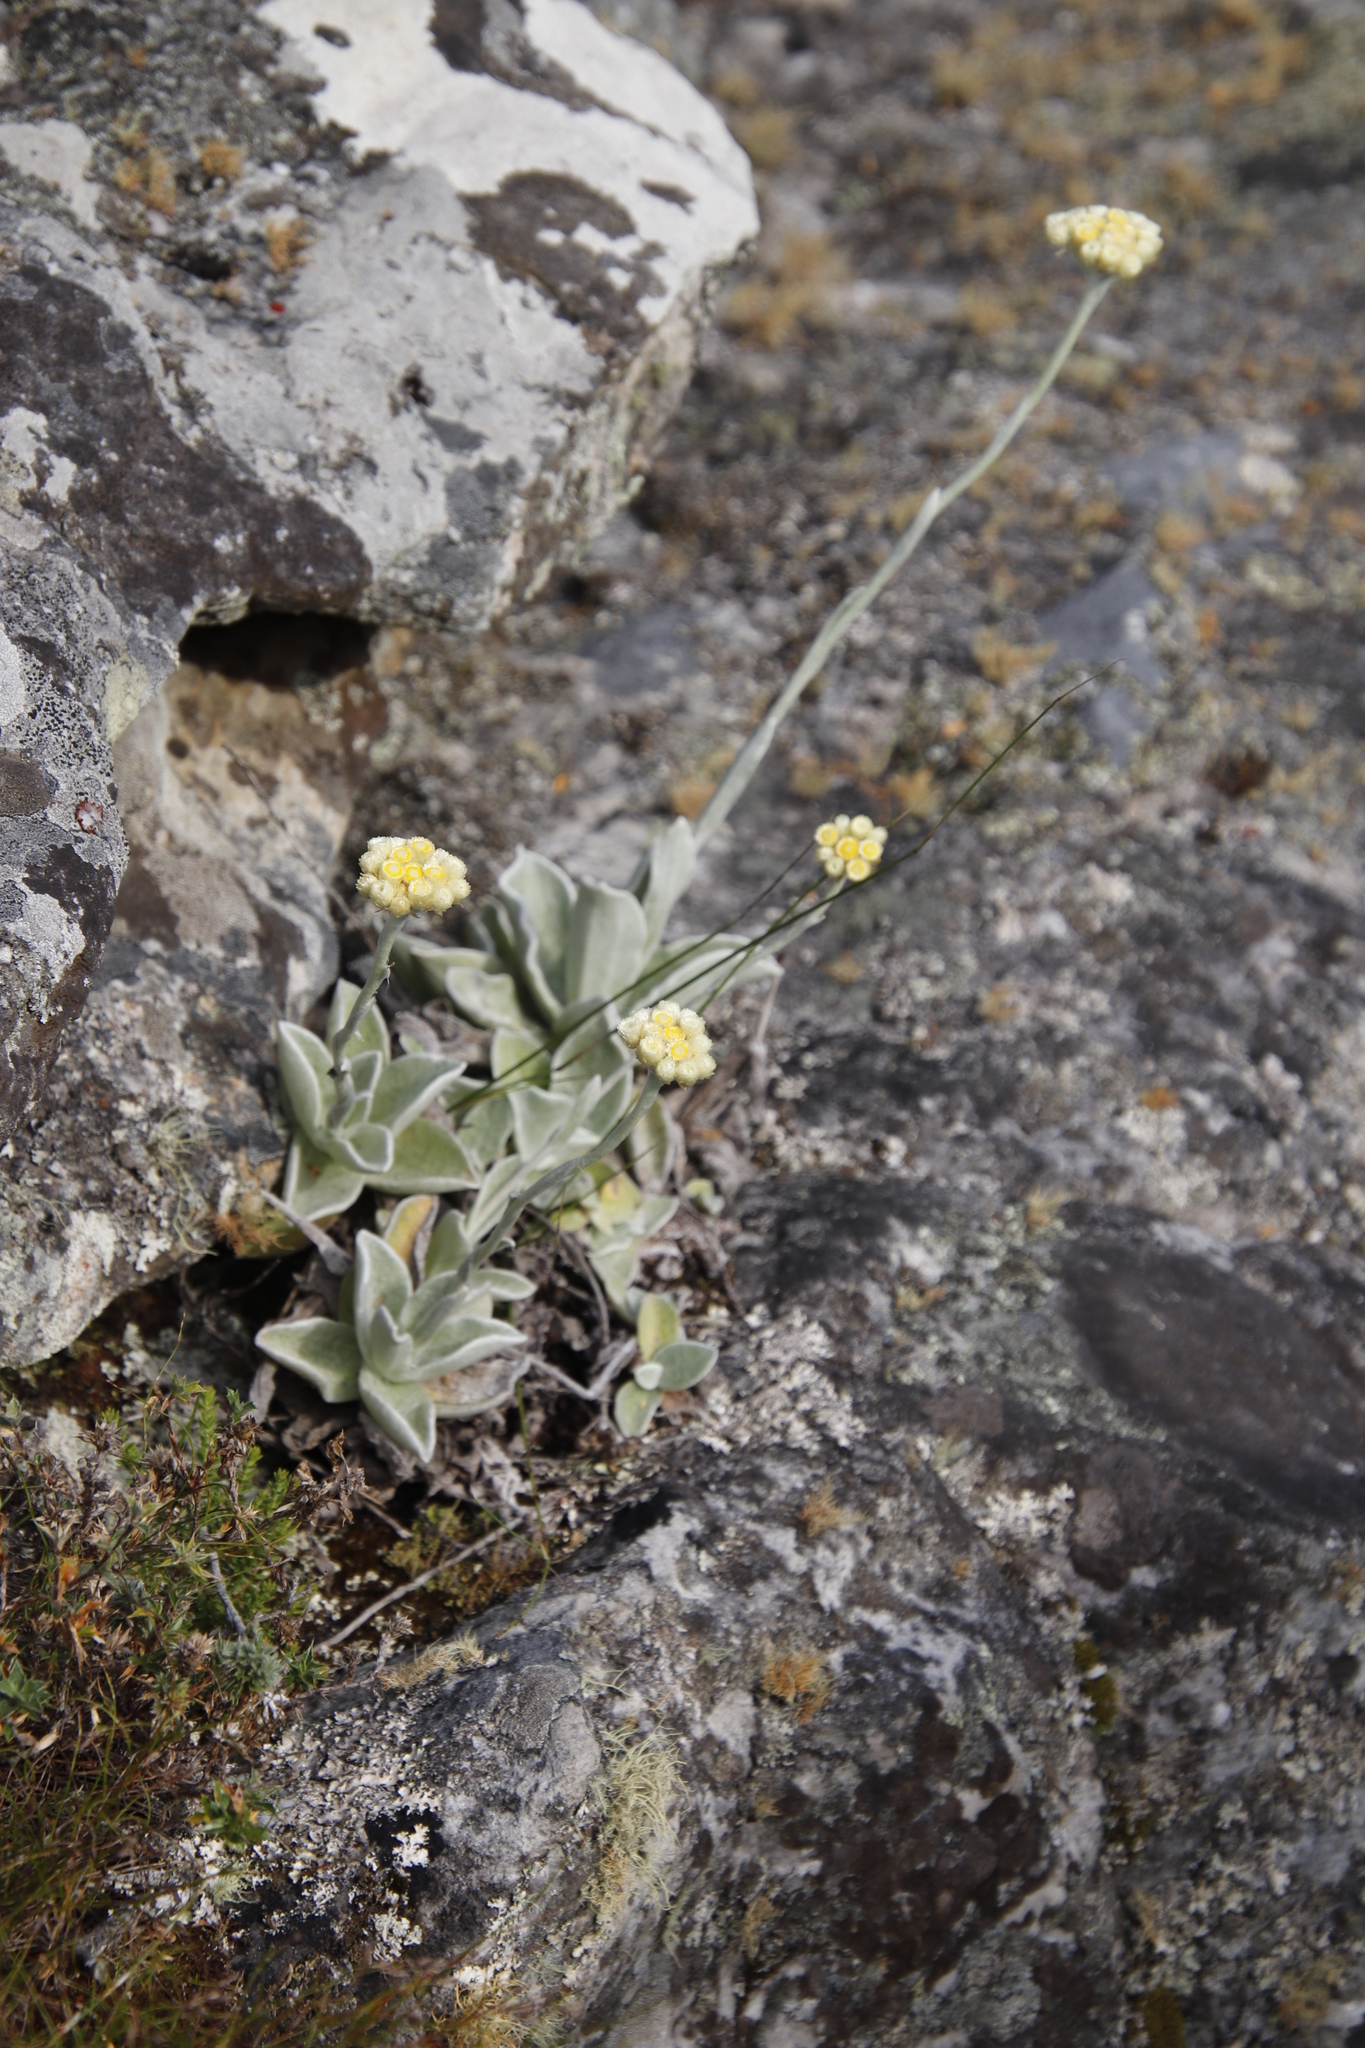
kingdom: Plantae
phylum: Tracheophyta
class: Magnoliopsida
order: Asterales
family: Asteraceae
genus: Helichrysum
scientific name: Helichrysum grandiflorum
